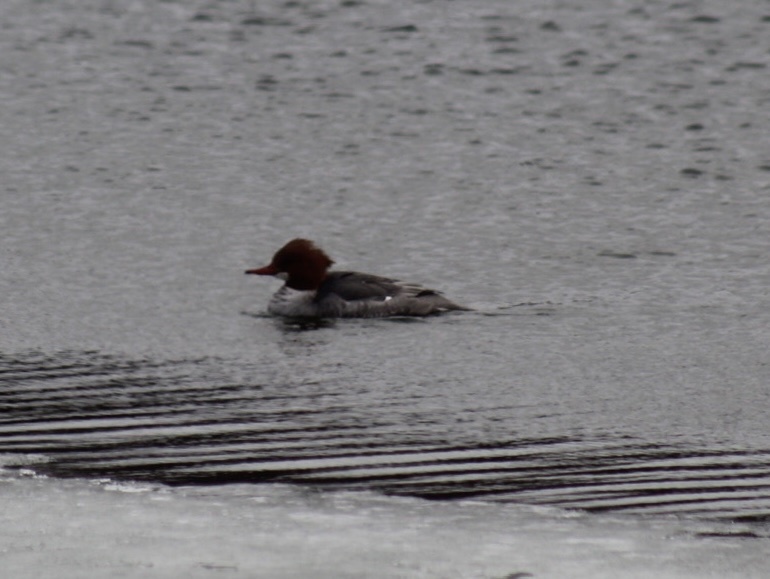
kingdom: Animalia
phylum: Chordata
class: Aves
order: Anseriformes
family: Anatidae
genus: Mergus
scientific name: Mergus merganser
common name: Common merganser
